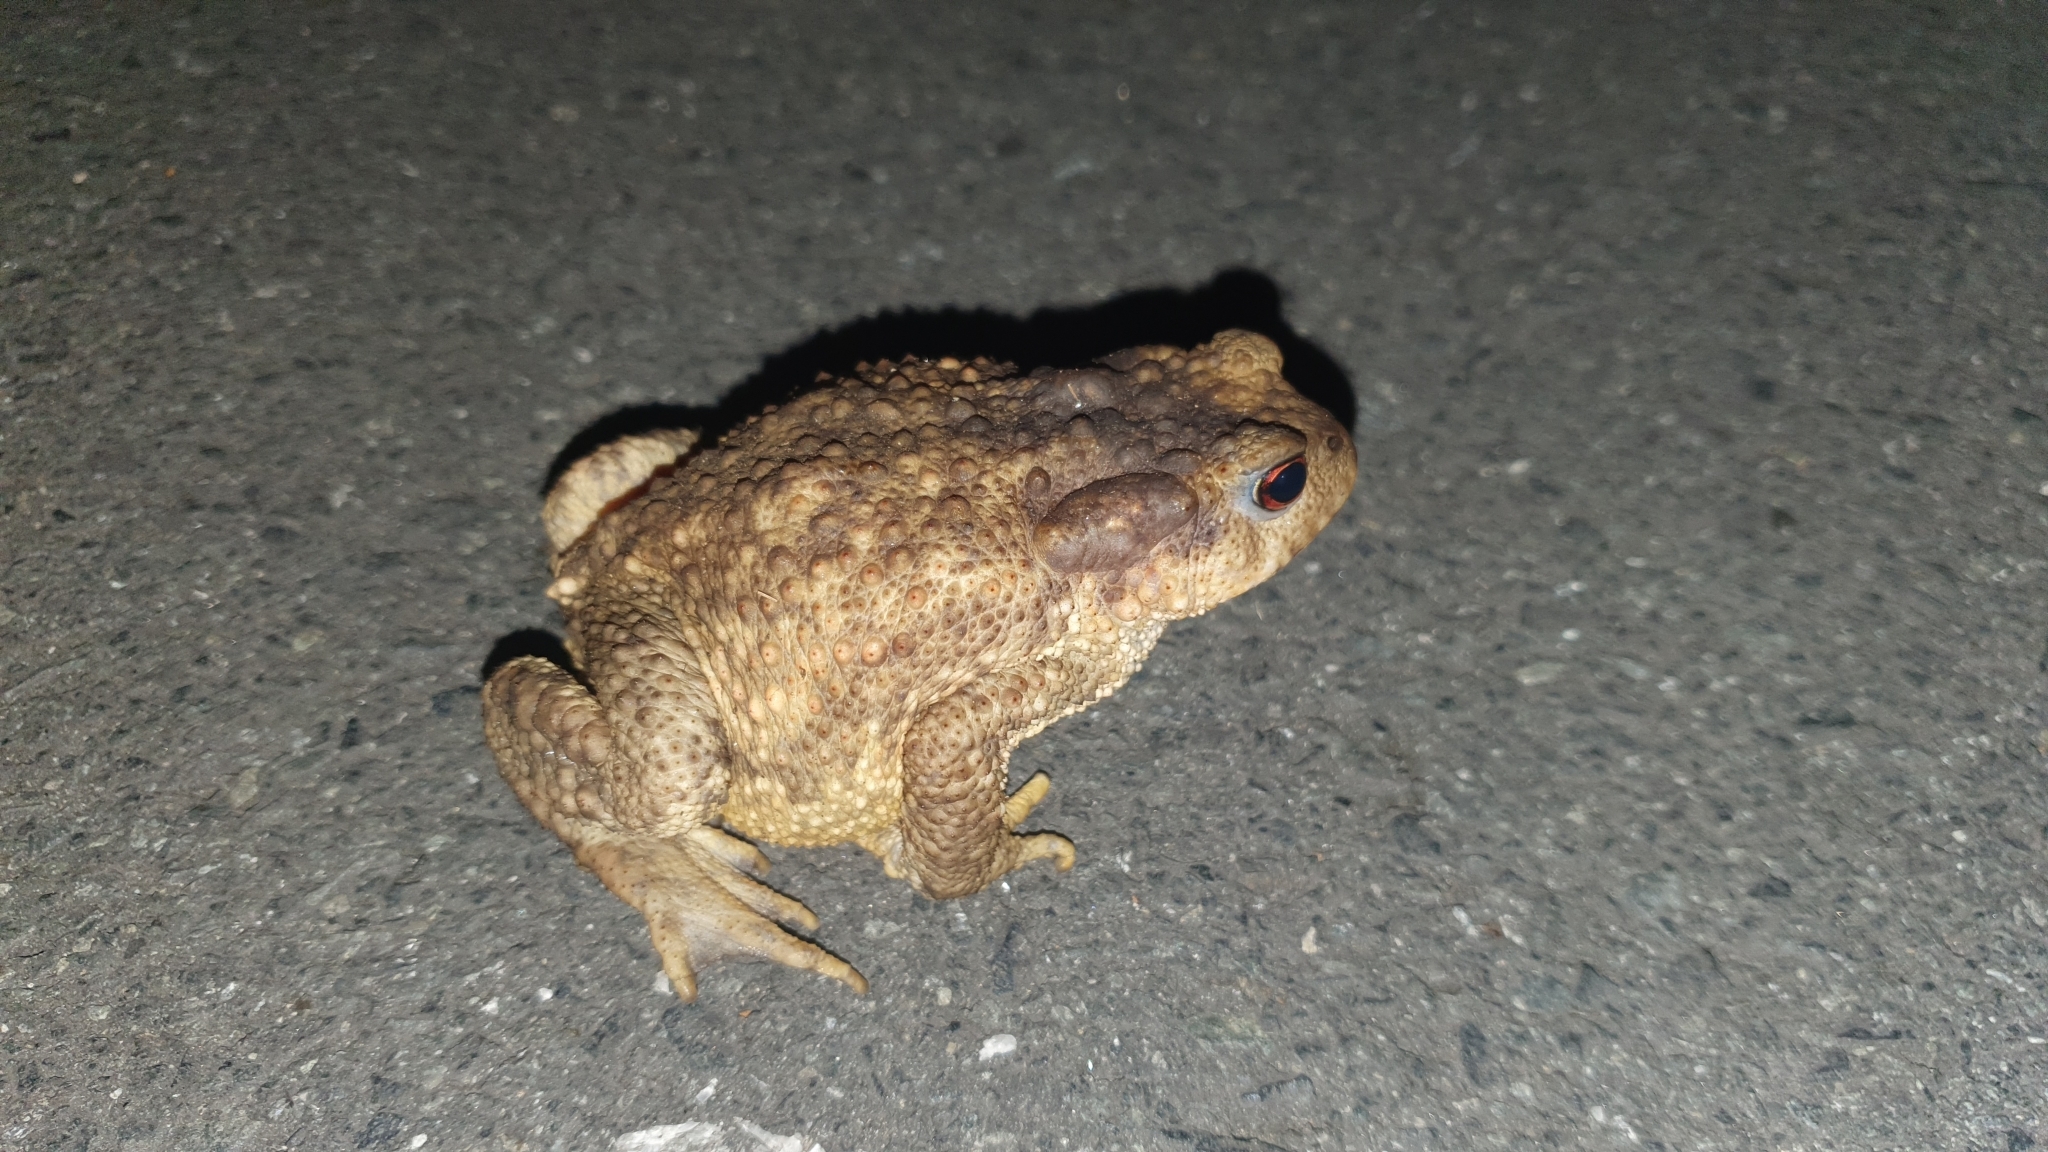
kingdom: Animalia
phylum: Chordata
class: Amphibia
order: Anura
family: Bufonidae
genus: Bufo
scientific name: Bufo spinosus
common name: Western common toad
